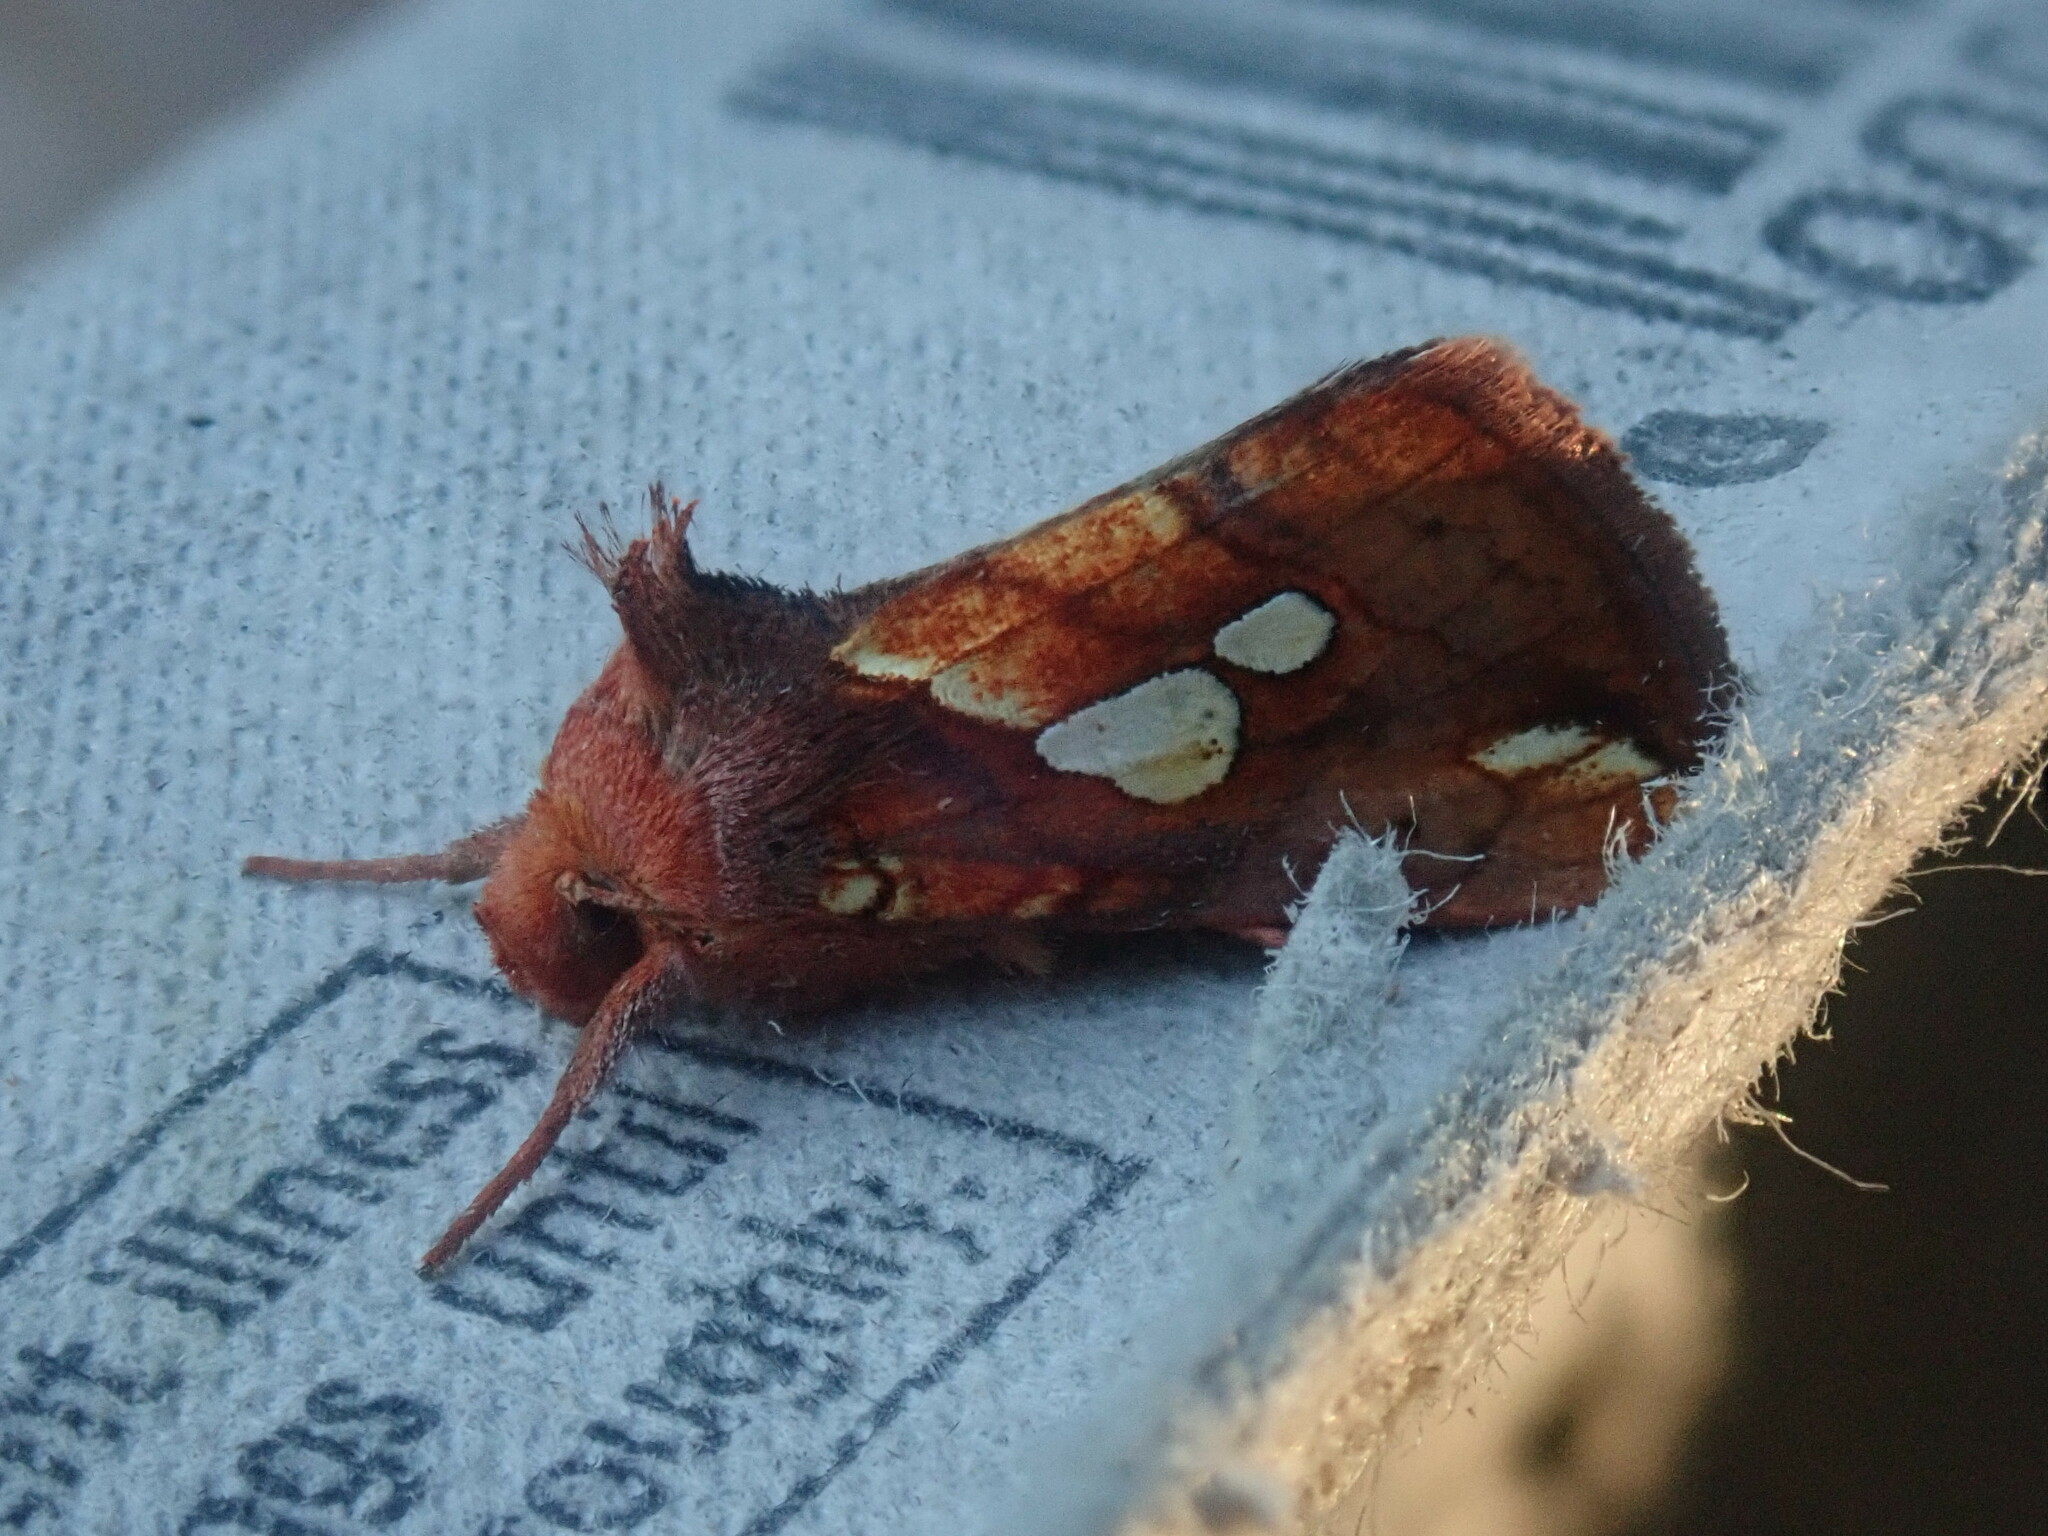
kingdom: Animalia
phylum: Arthropoda
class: Insecta
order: Lepidoptera
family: Noctuidae
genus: Plusia
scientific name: Plusia magnimacula
